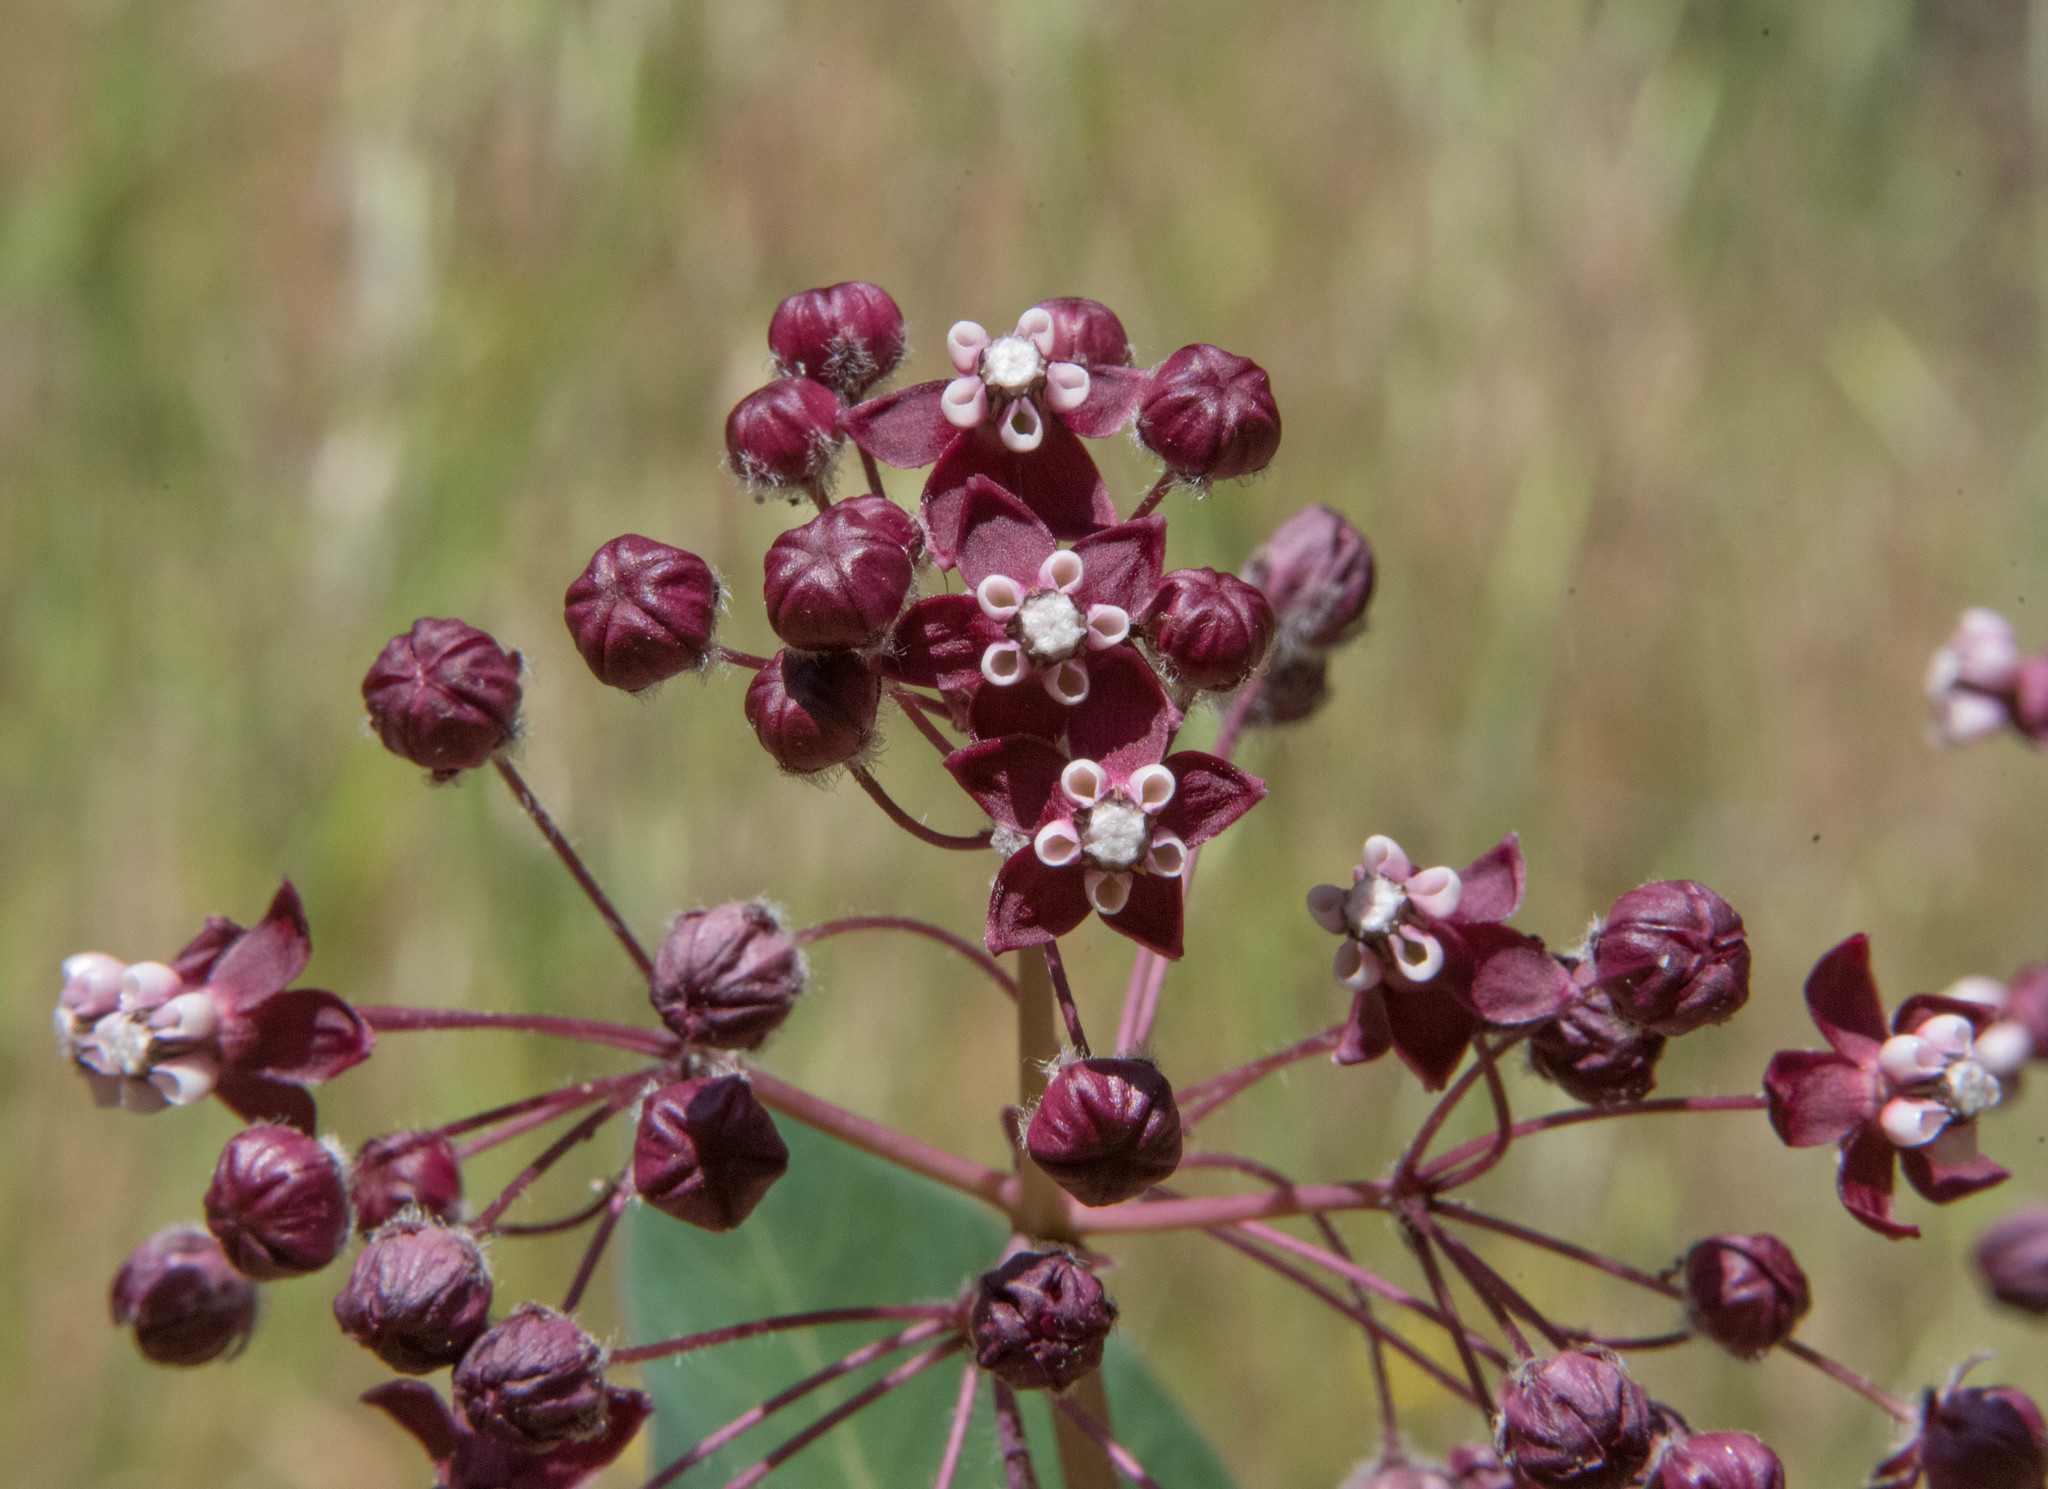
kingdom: Plantae
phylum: Tracheophyta
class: Magnoliopsida
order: Gentianales
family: Apocynaceae
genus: Asclepias
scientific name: Asclepias cordifolia
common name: Purple milkweed
